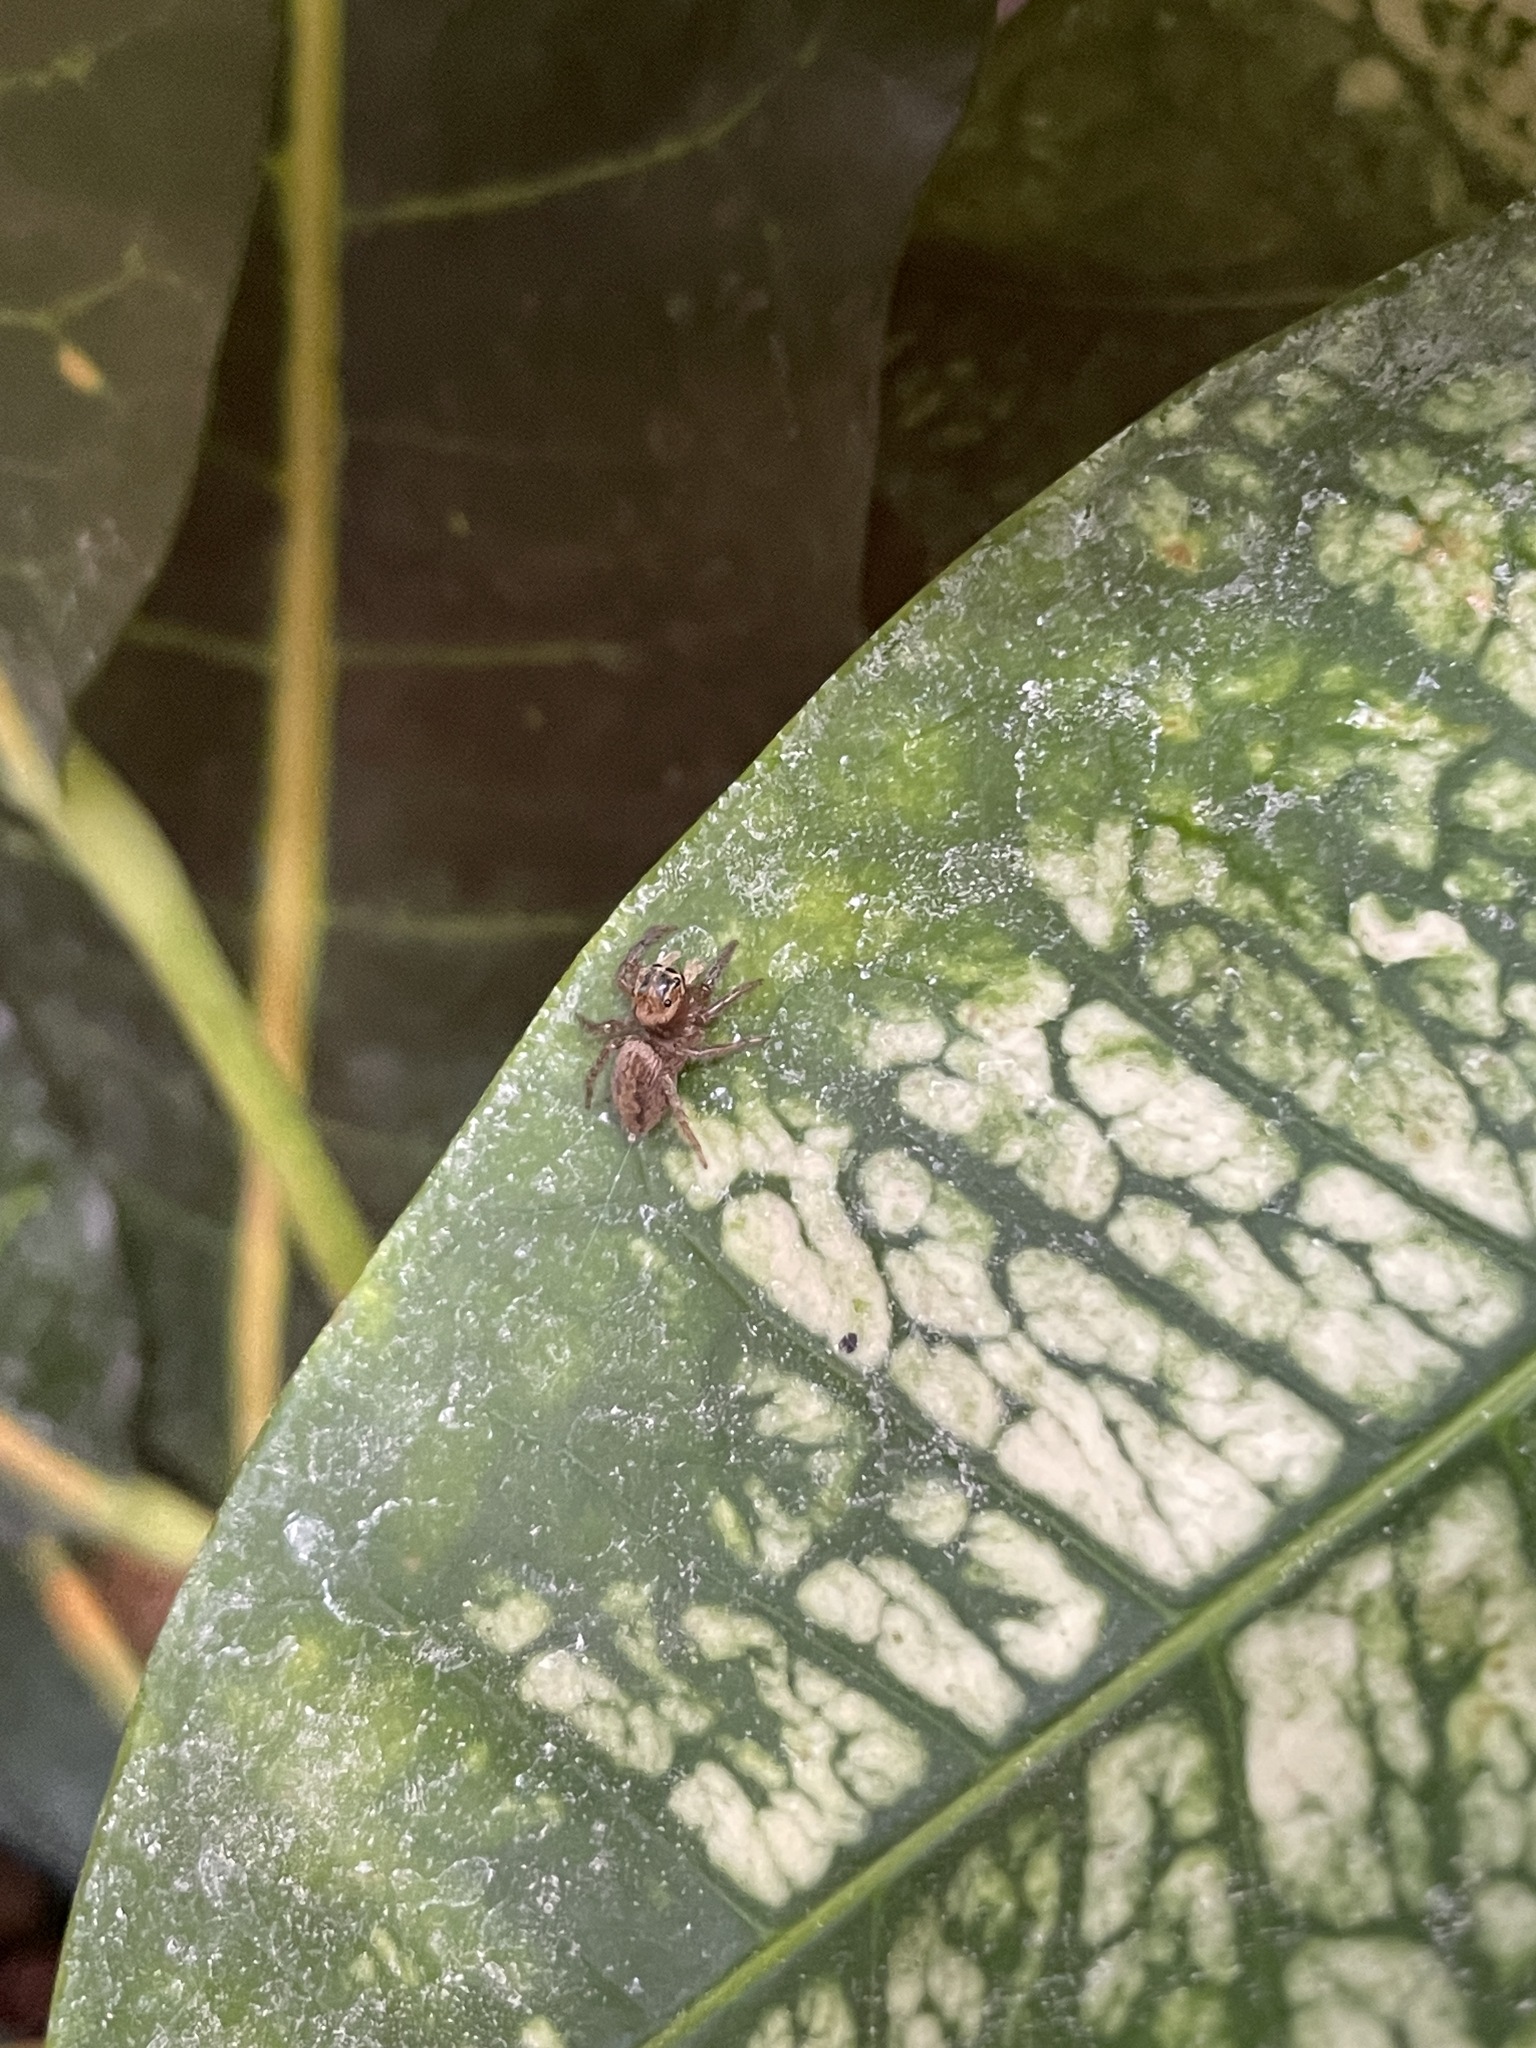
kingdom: Animalia
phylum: Arthropoda
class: Arachnida
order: Araneae
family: Salticidae
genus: Macaroeris
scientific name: Macaroeris nidicolens
